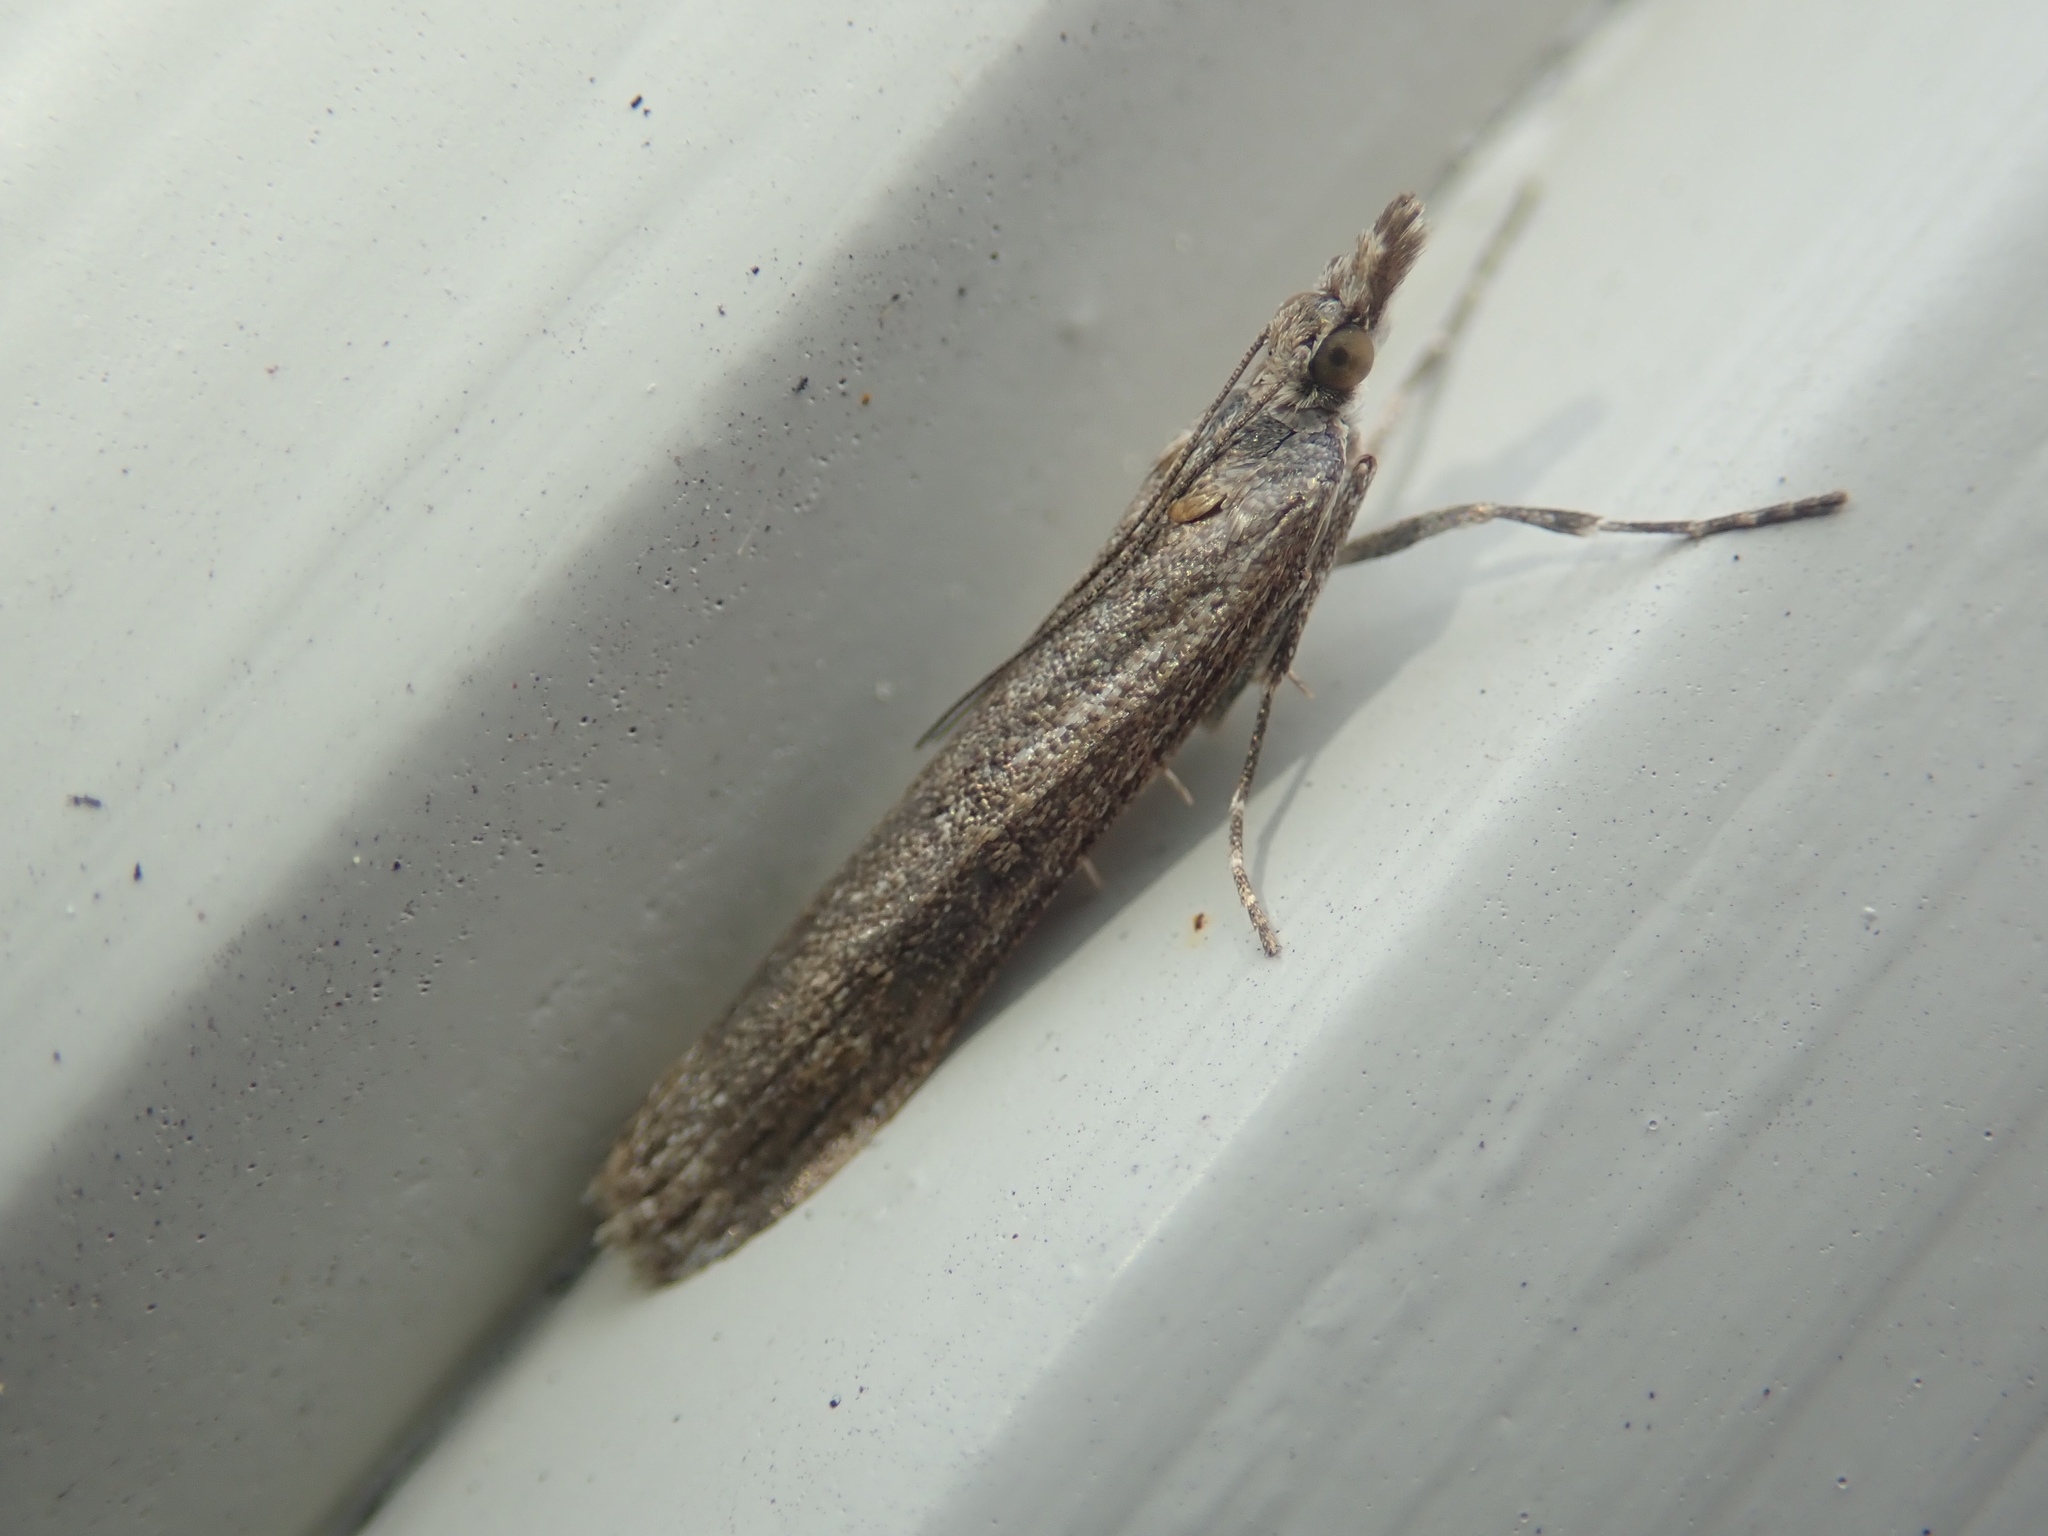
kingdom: Animalia
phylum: Arthropoda
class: Insecta
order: Lepidoptera
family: Crambidae
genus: Eudonia
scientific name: Eudonia leptalea
